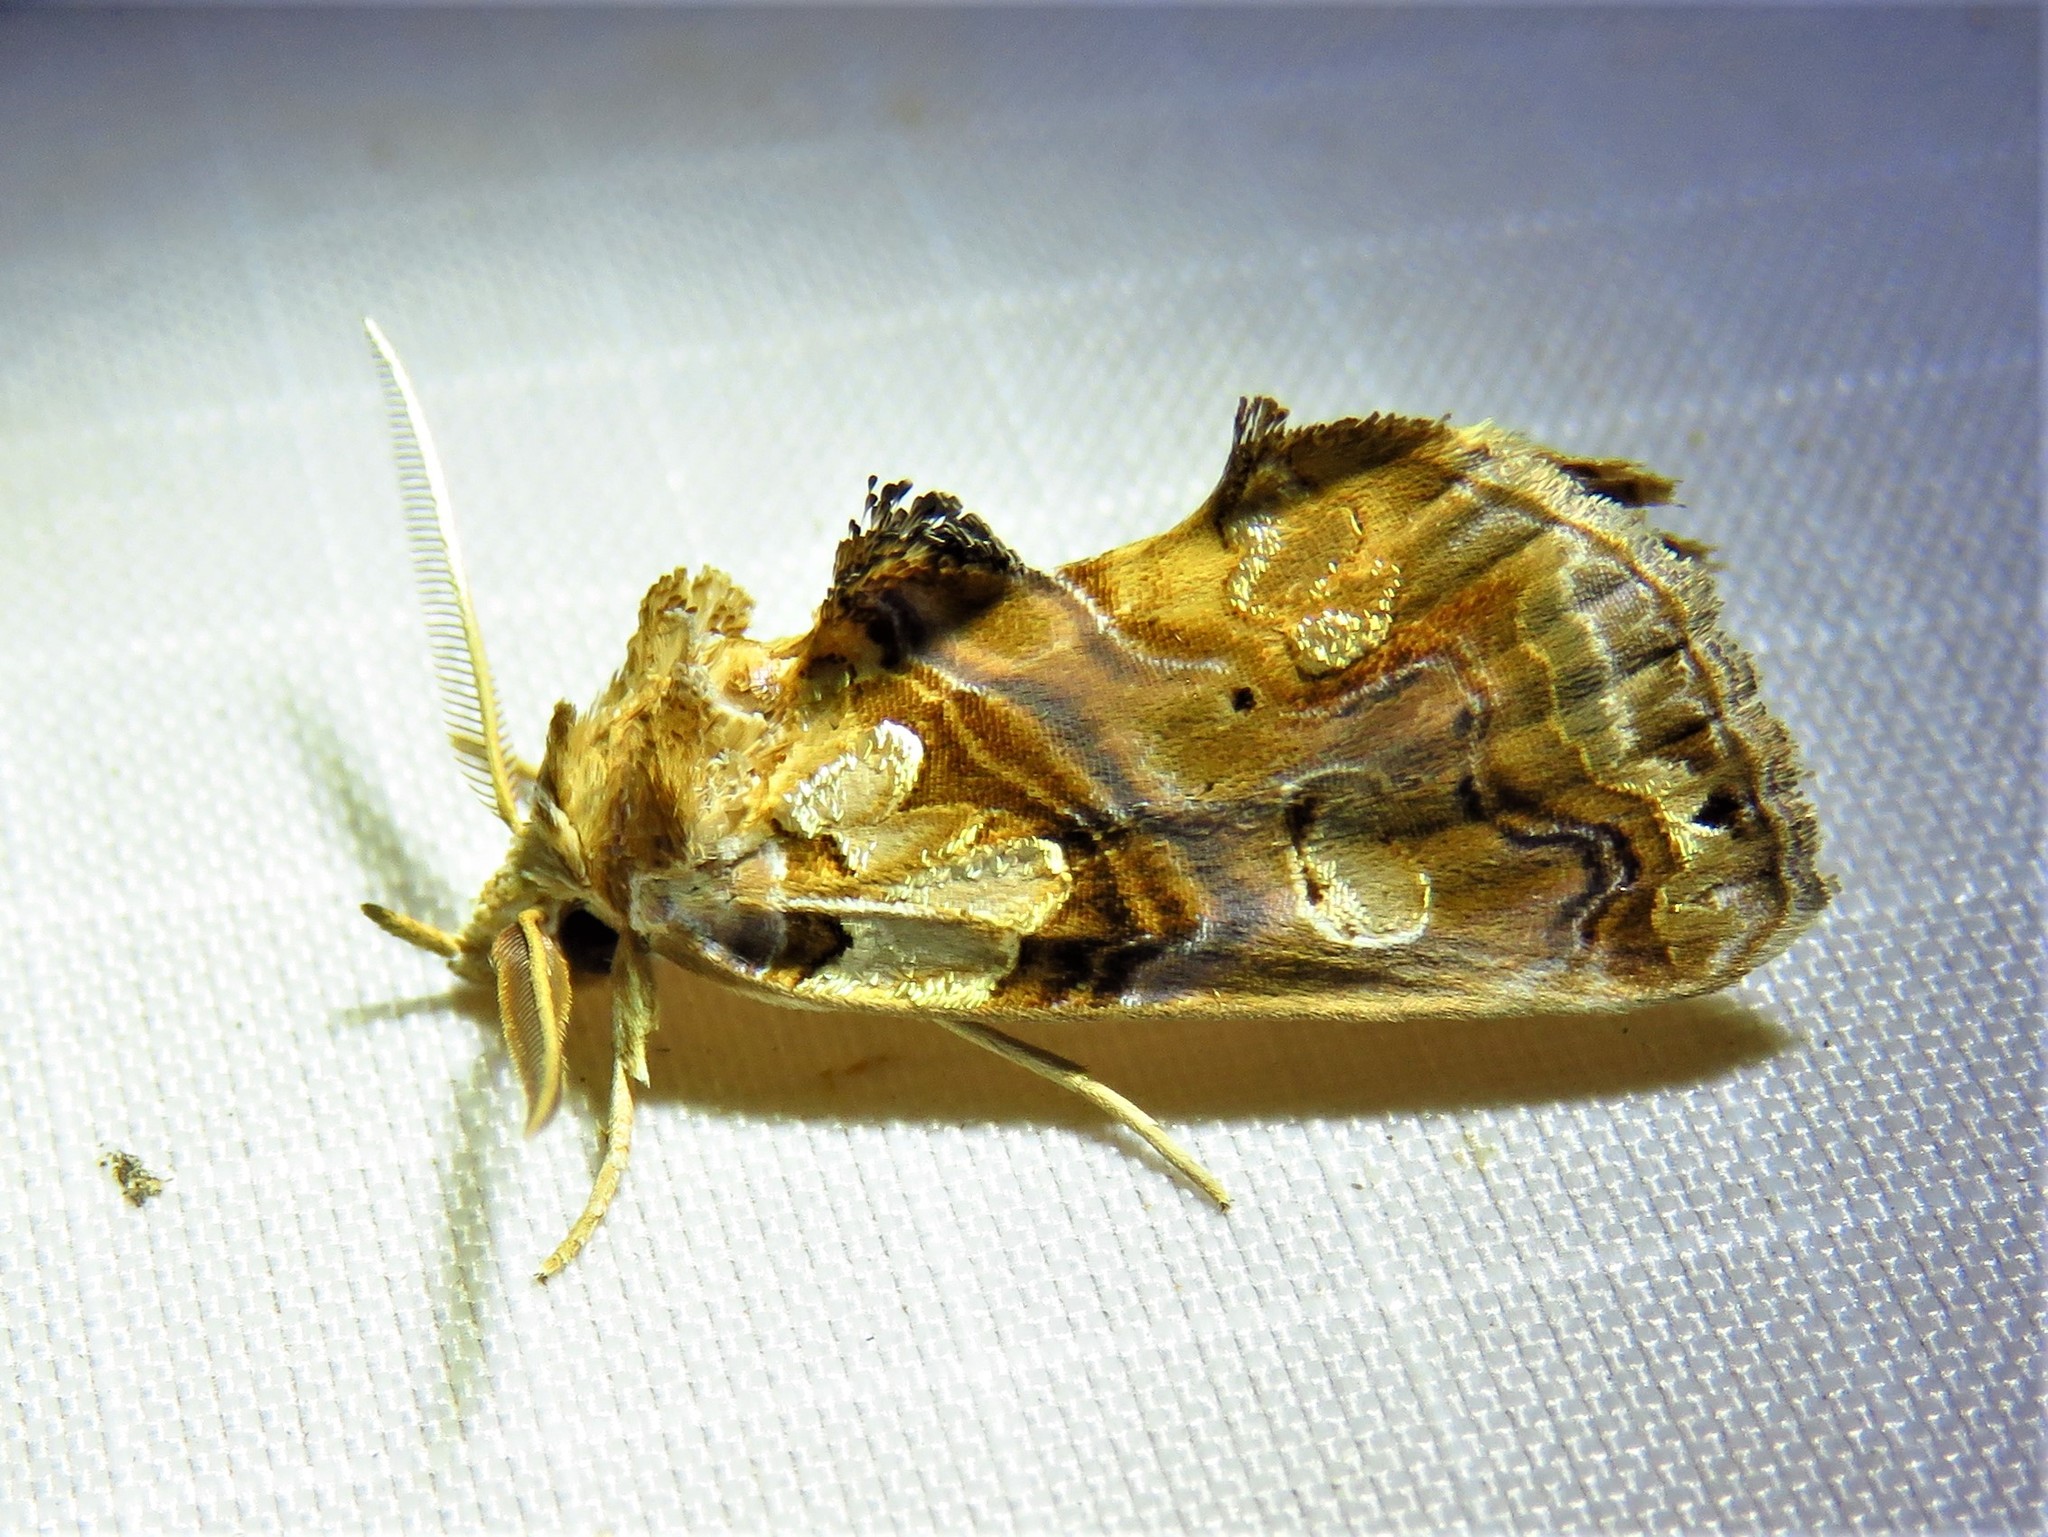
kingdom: Animalia
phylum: Arthropoda
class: Insecta
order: Lepidoptera
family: Erebidae
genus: Plusiodonta
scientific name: Plusiodonta compressipalpis
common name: Moonseed moth
